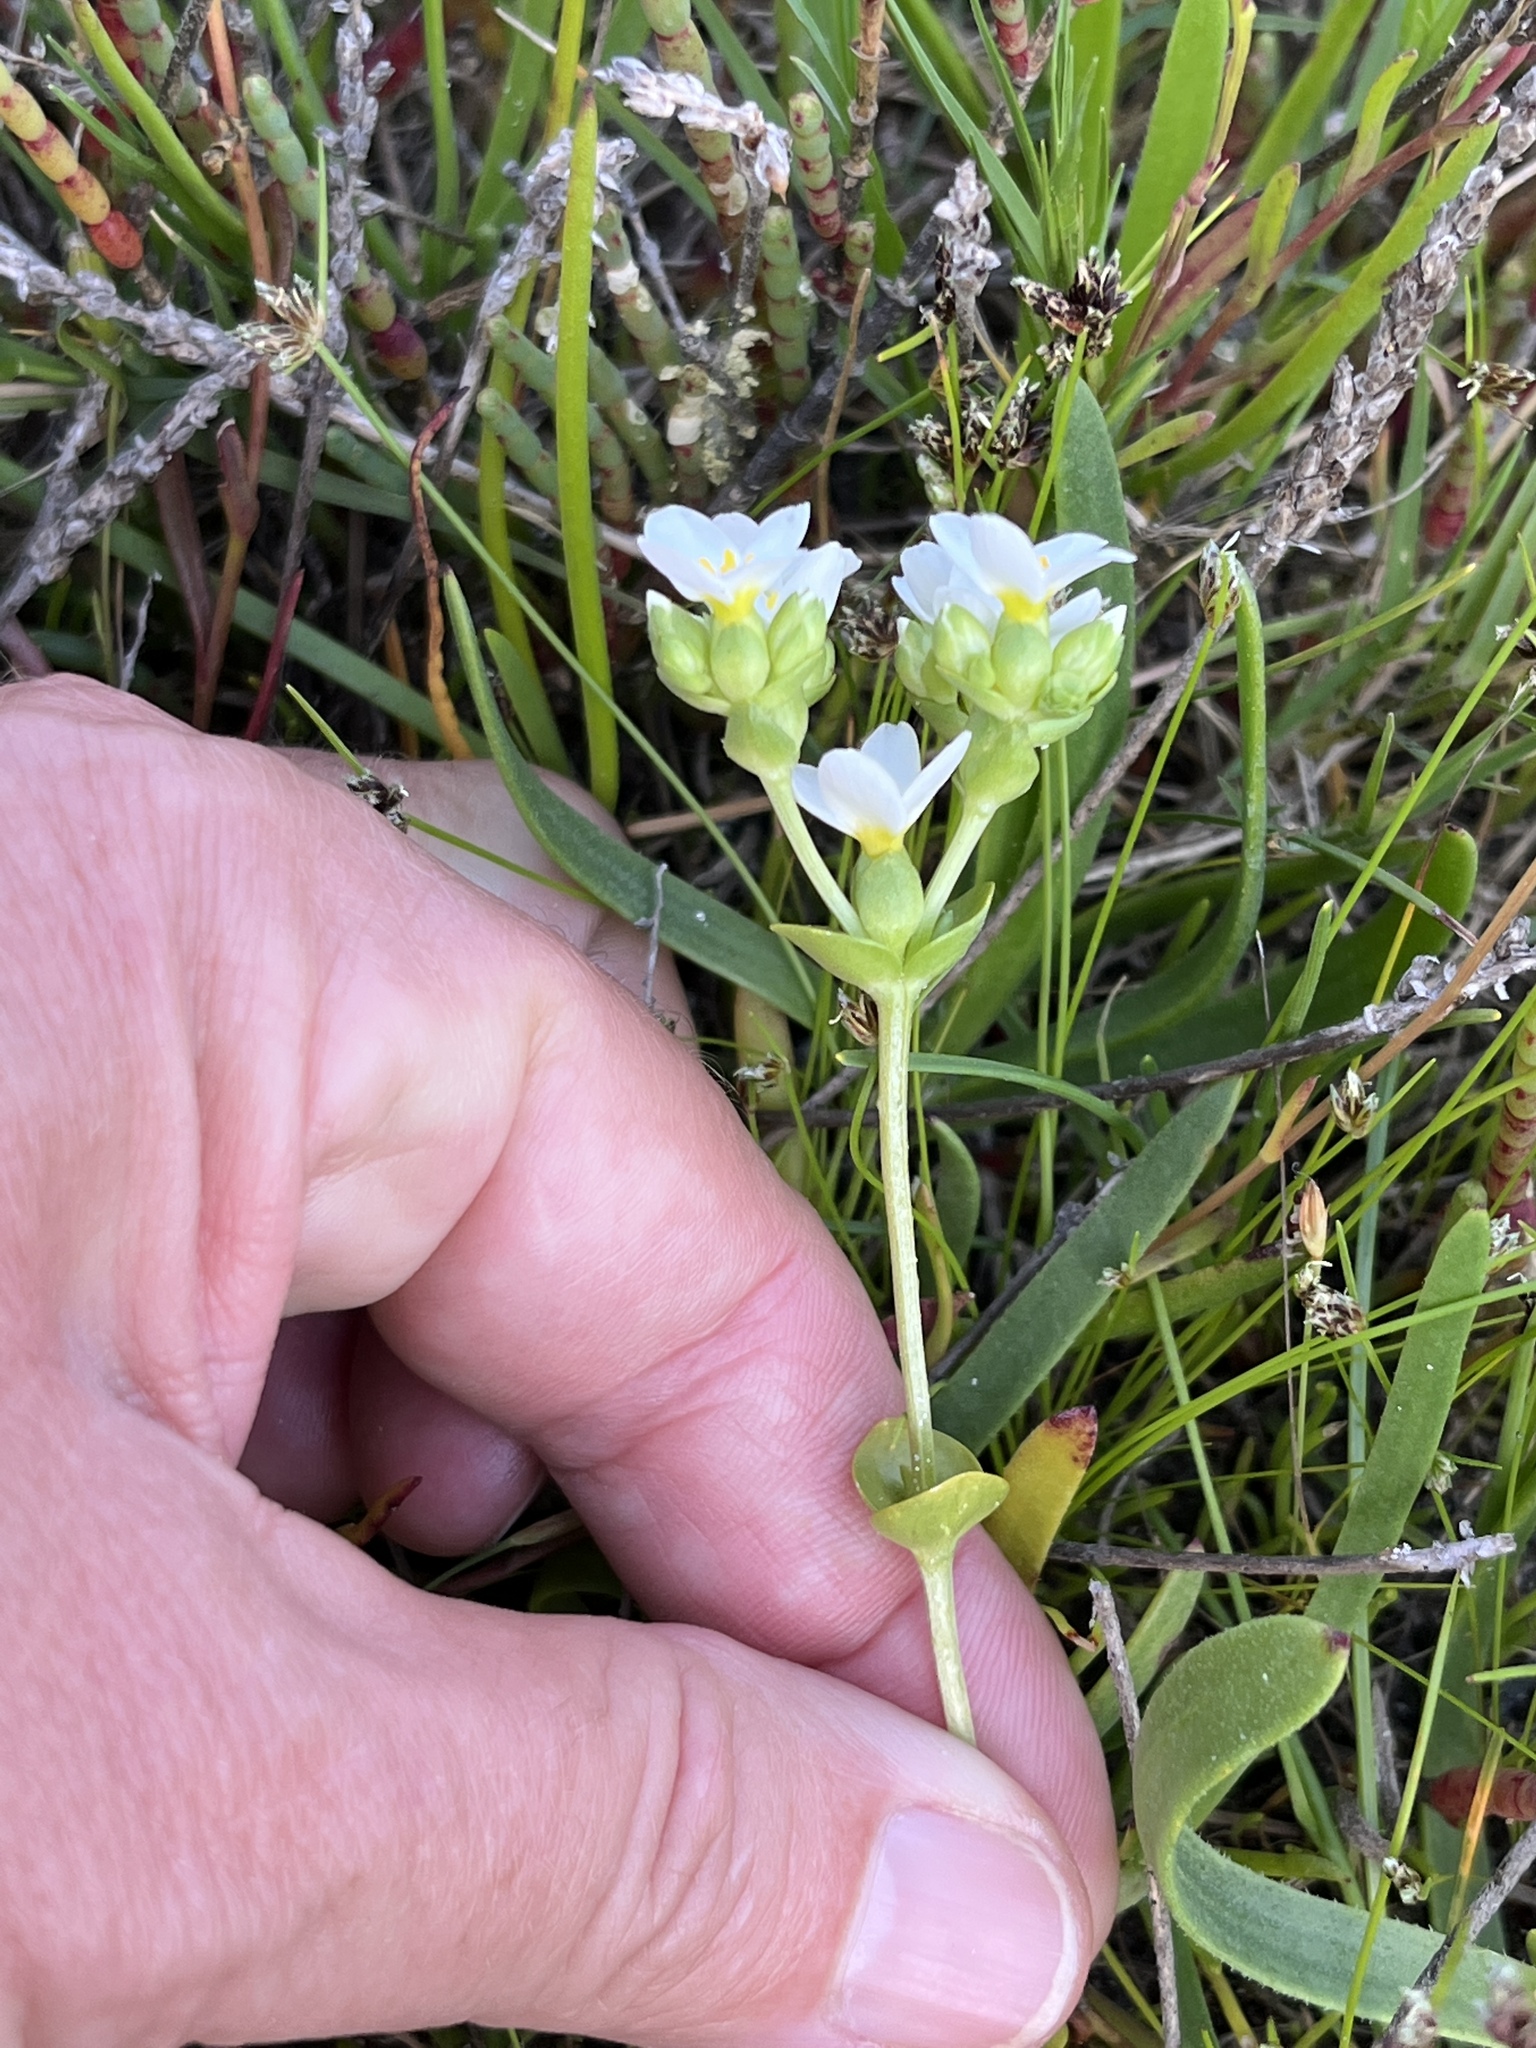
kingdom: Plantae
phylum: Tracheophyta
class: Magnoliopsida
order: Gentianales
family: Gentianaceae
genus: Sebaea
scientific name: Sebaea albens
